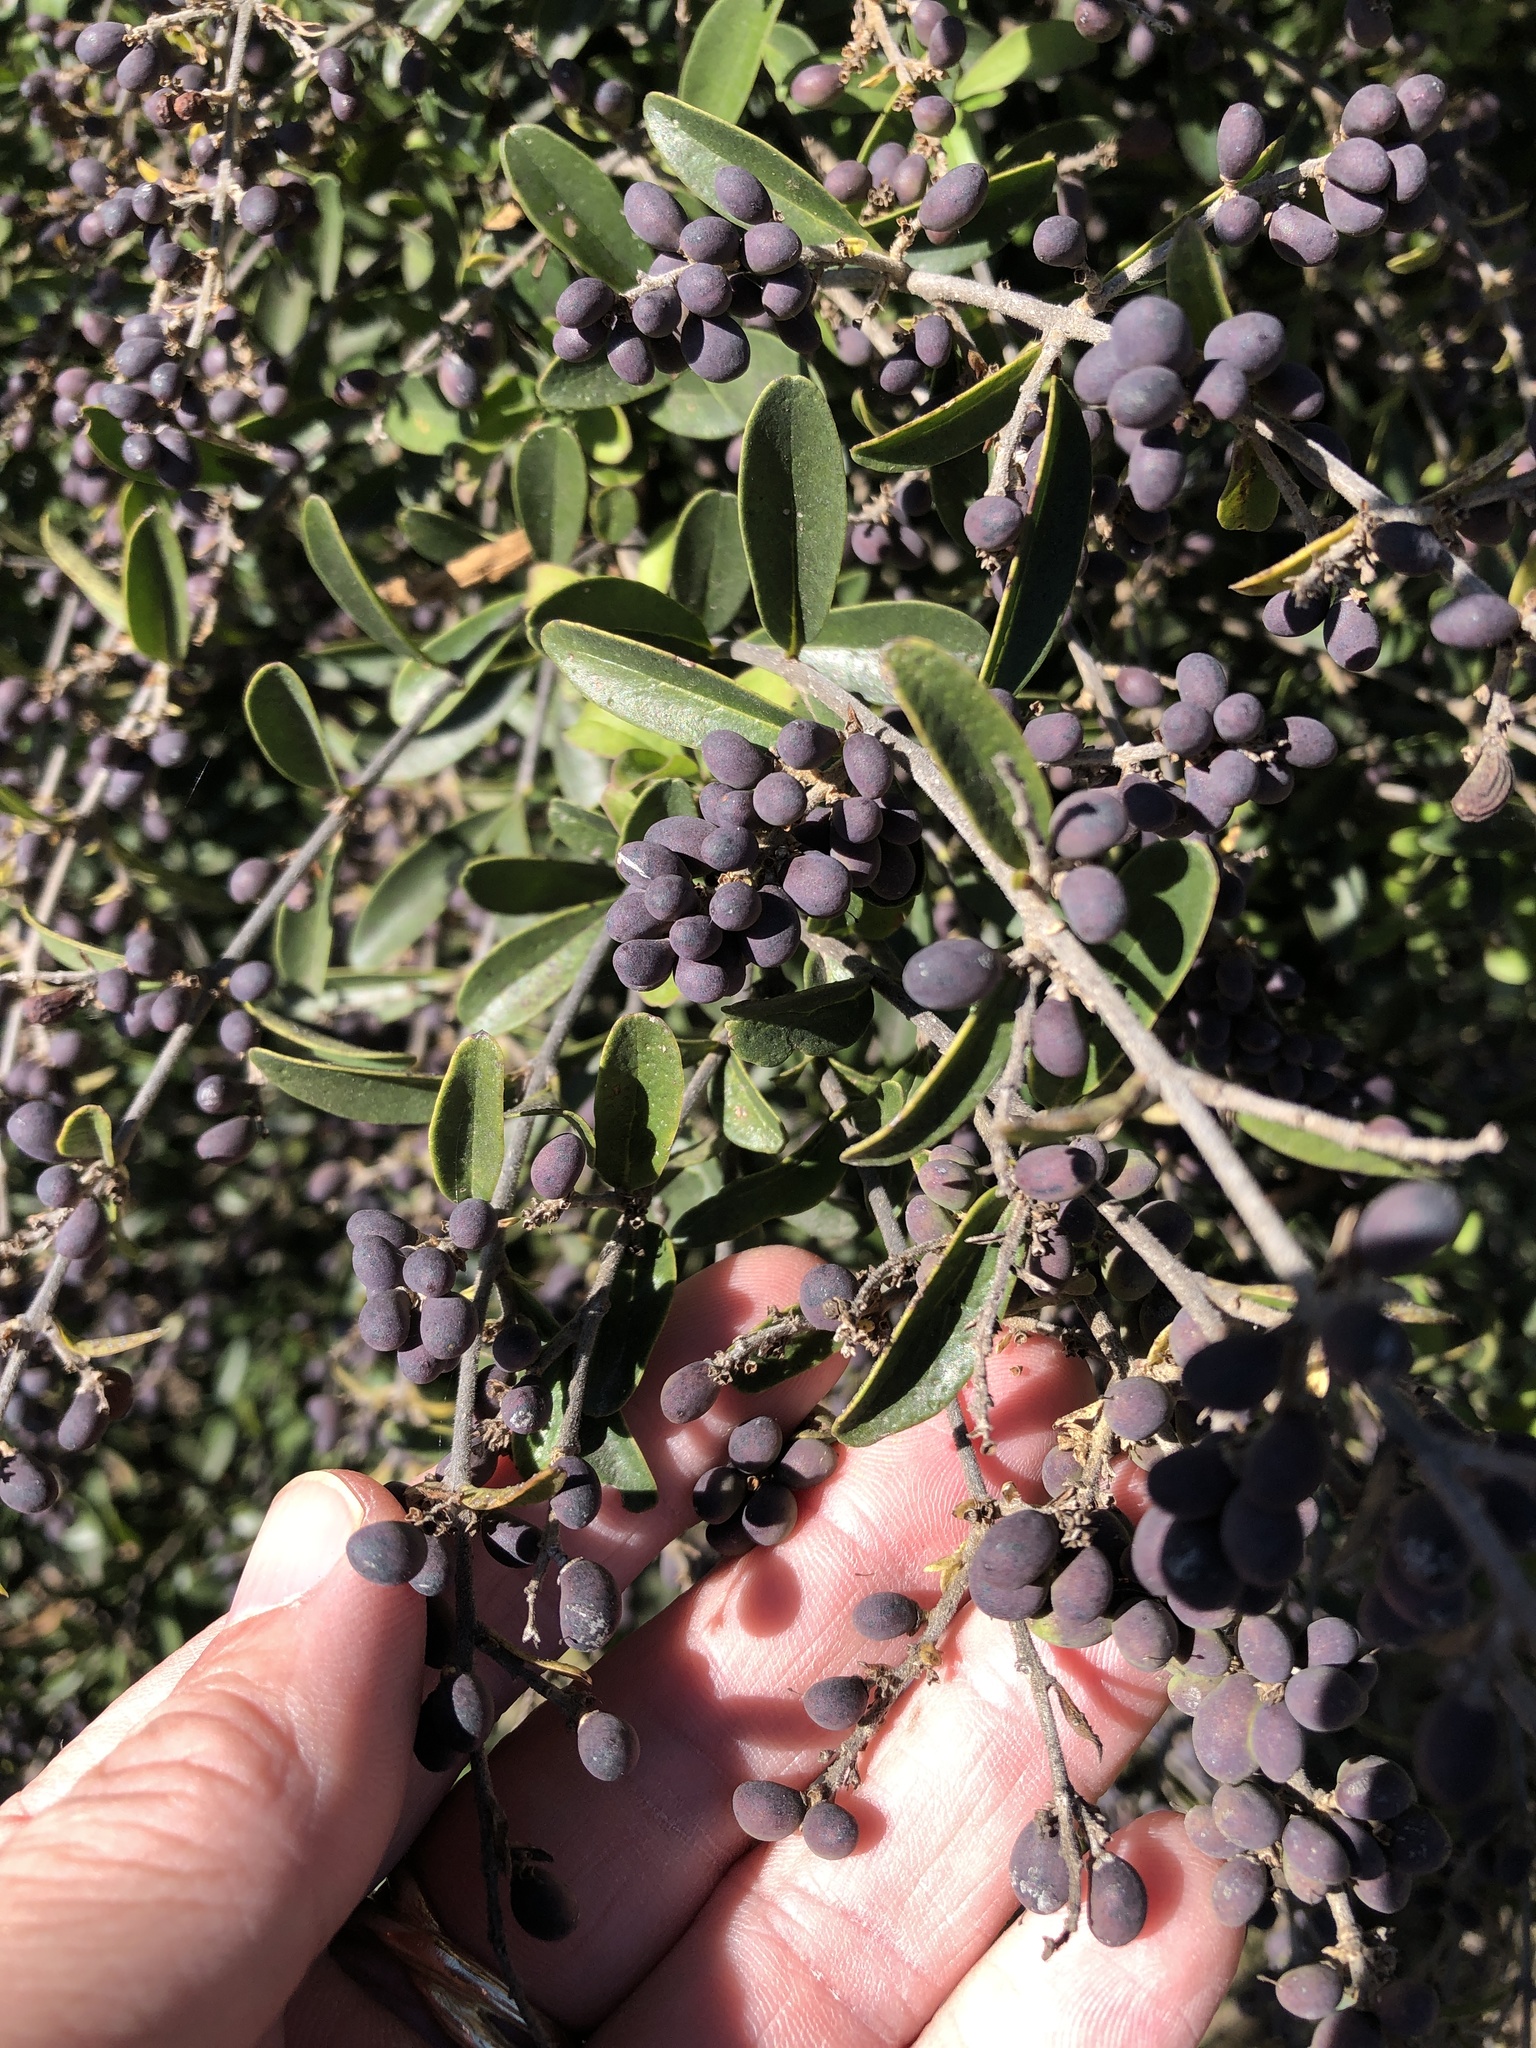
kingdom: Plantae
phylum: Tracheophyta
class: Magnoliopsida
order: Lamiales
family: Oleaceae
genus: Ligustrum
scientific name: Ligustrum quihoui
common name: Waxyleaf privet
